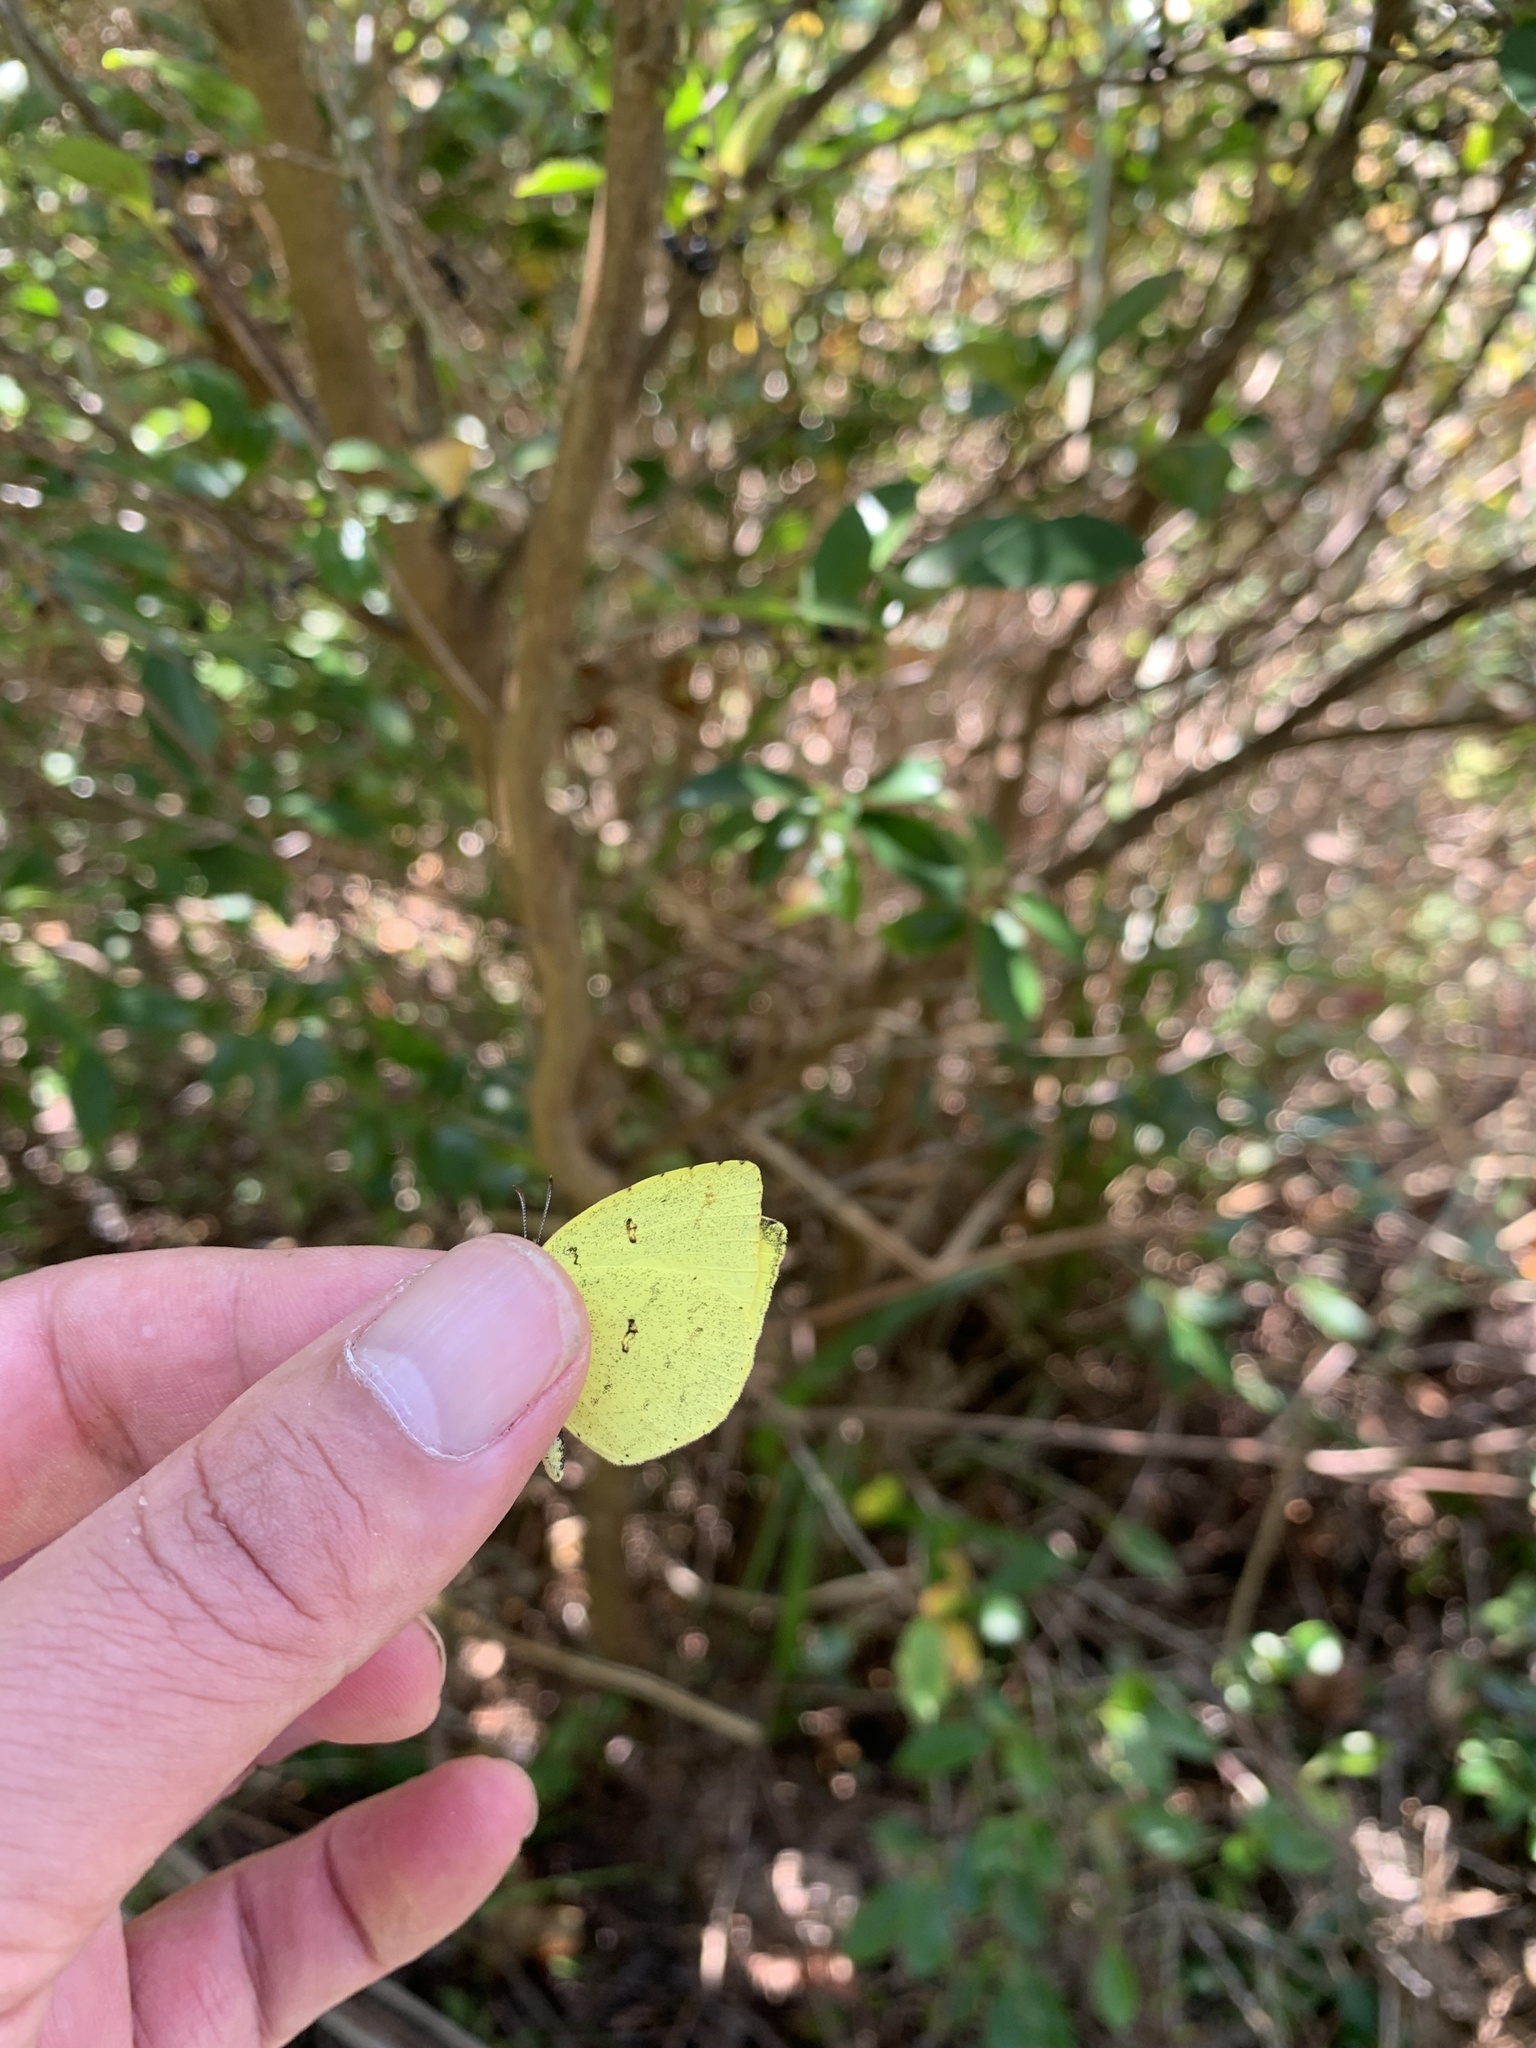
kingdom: Animalia
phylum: Arthropoda
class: Insecta
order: Lepidoptera
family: Pieridae
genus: Eurema
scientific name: Eurema mandarina
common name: Japanese common grass yellow
